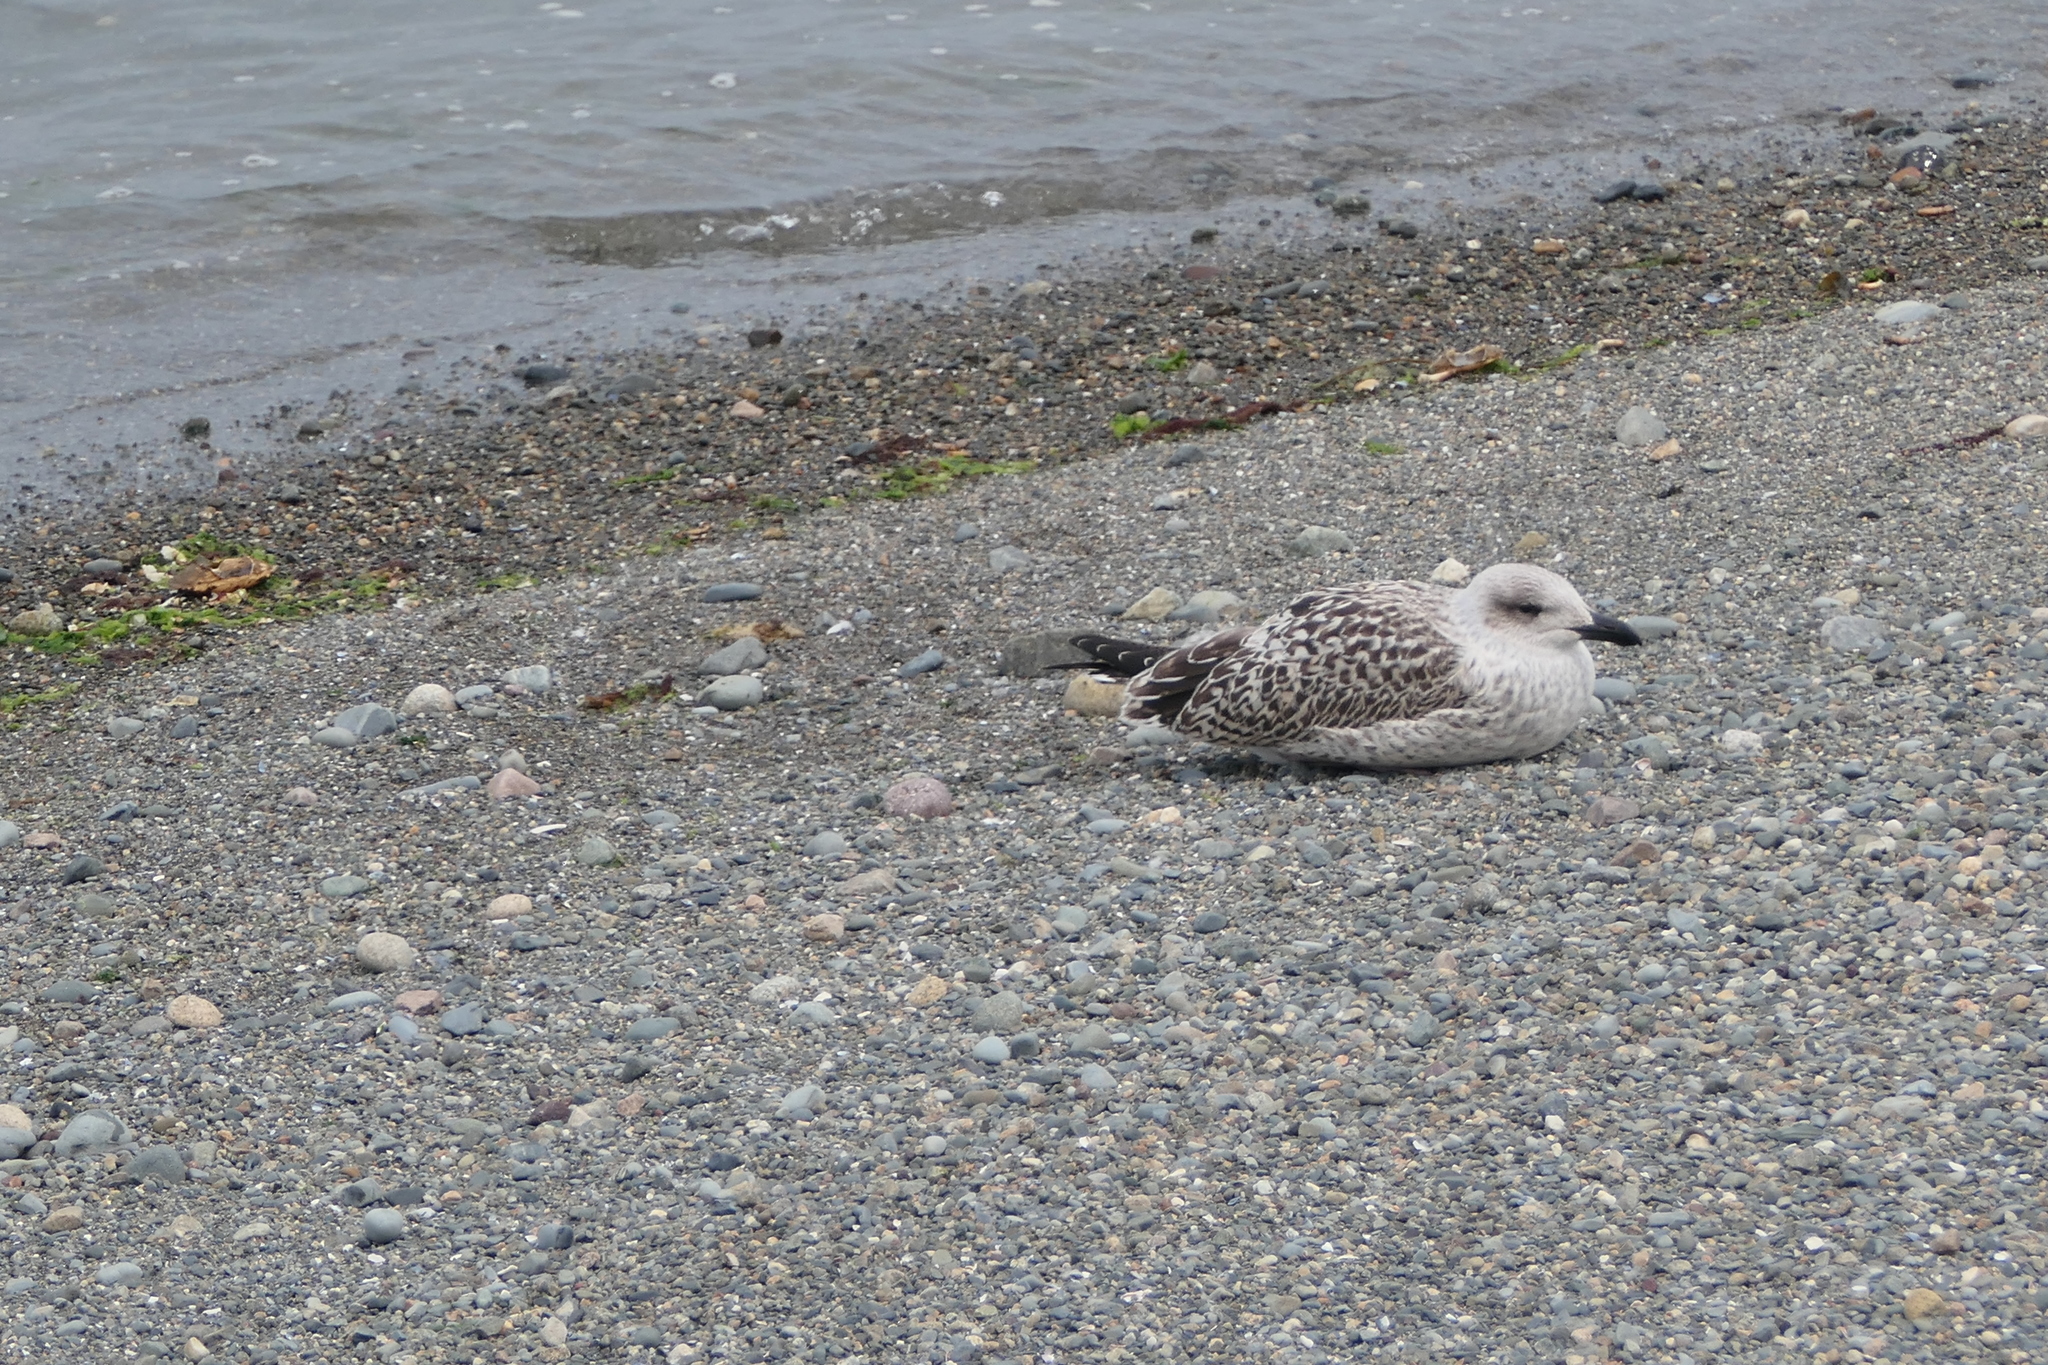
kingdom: Animalia
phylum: Chordata
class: Aves
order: Charadriiformes
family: Laridae
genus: Larus
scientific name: Larus marinus
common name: Great black-backed gull
